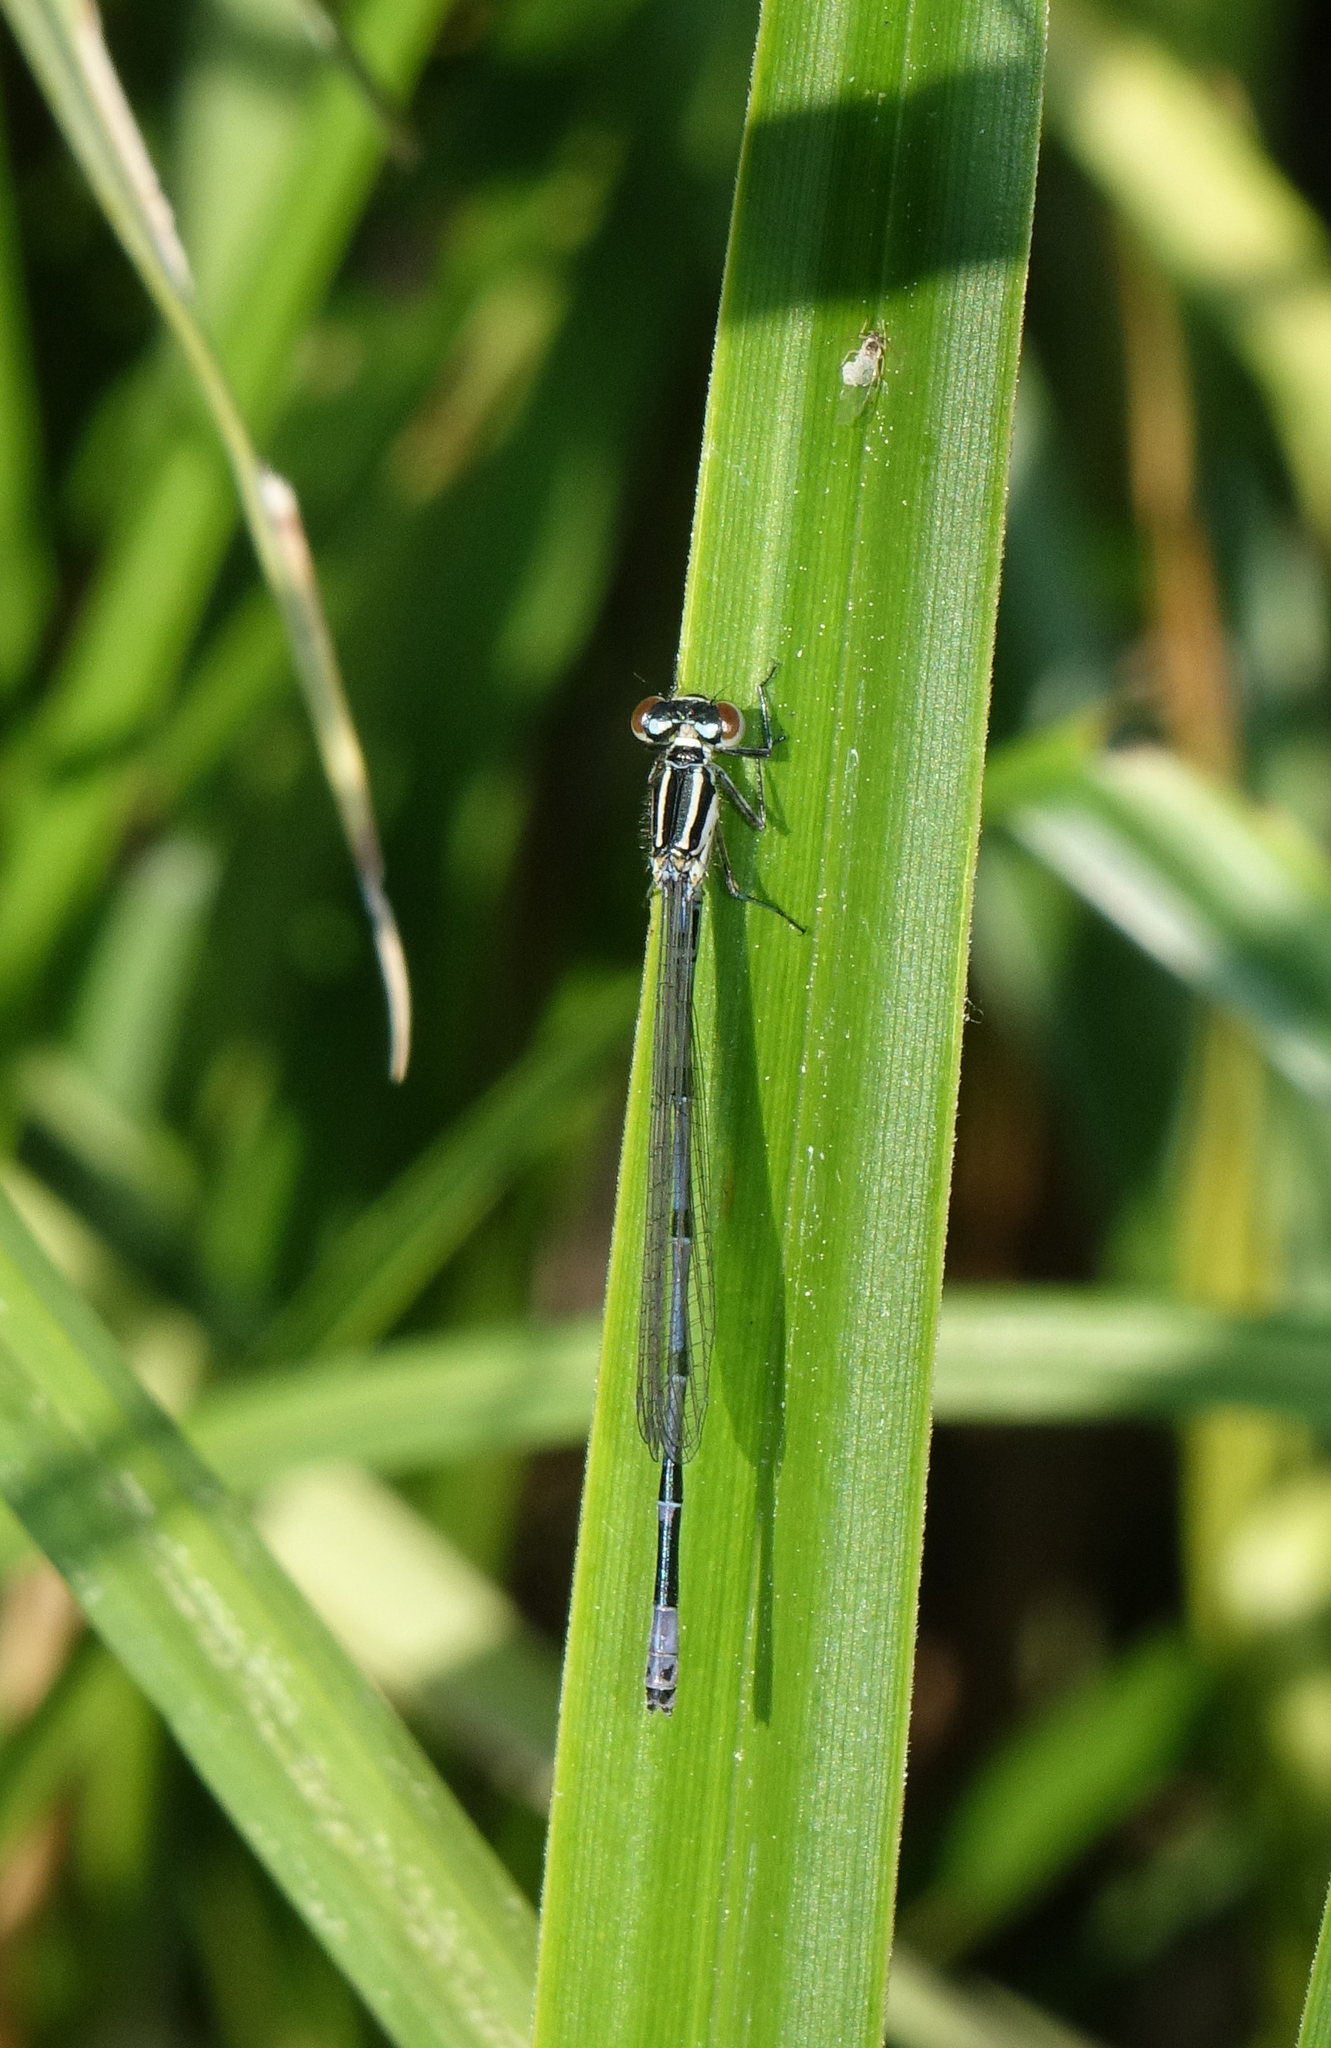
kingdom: Animalia
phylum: Arthropoda
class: Insecta
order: Odonata
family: Coenagrionidae
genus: Coenagrion
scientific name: Coenagrion puella
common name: Azure damselfly
